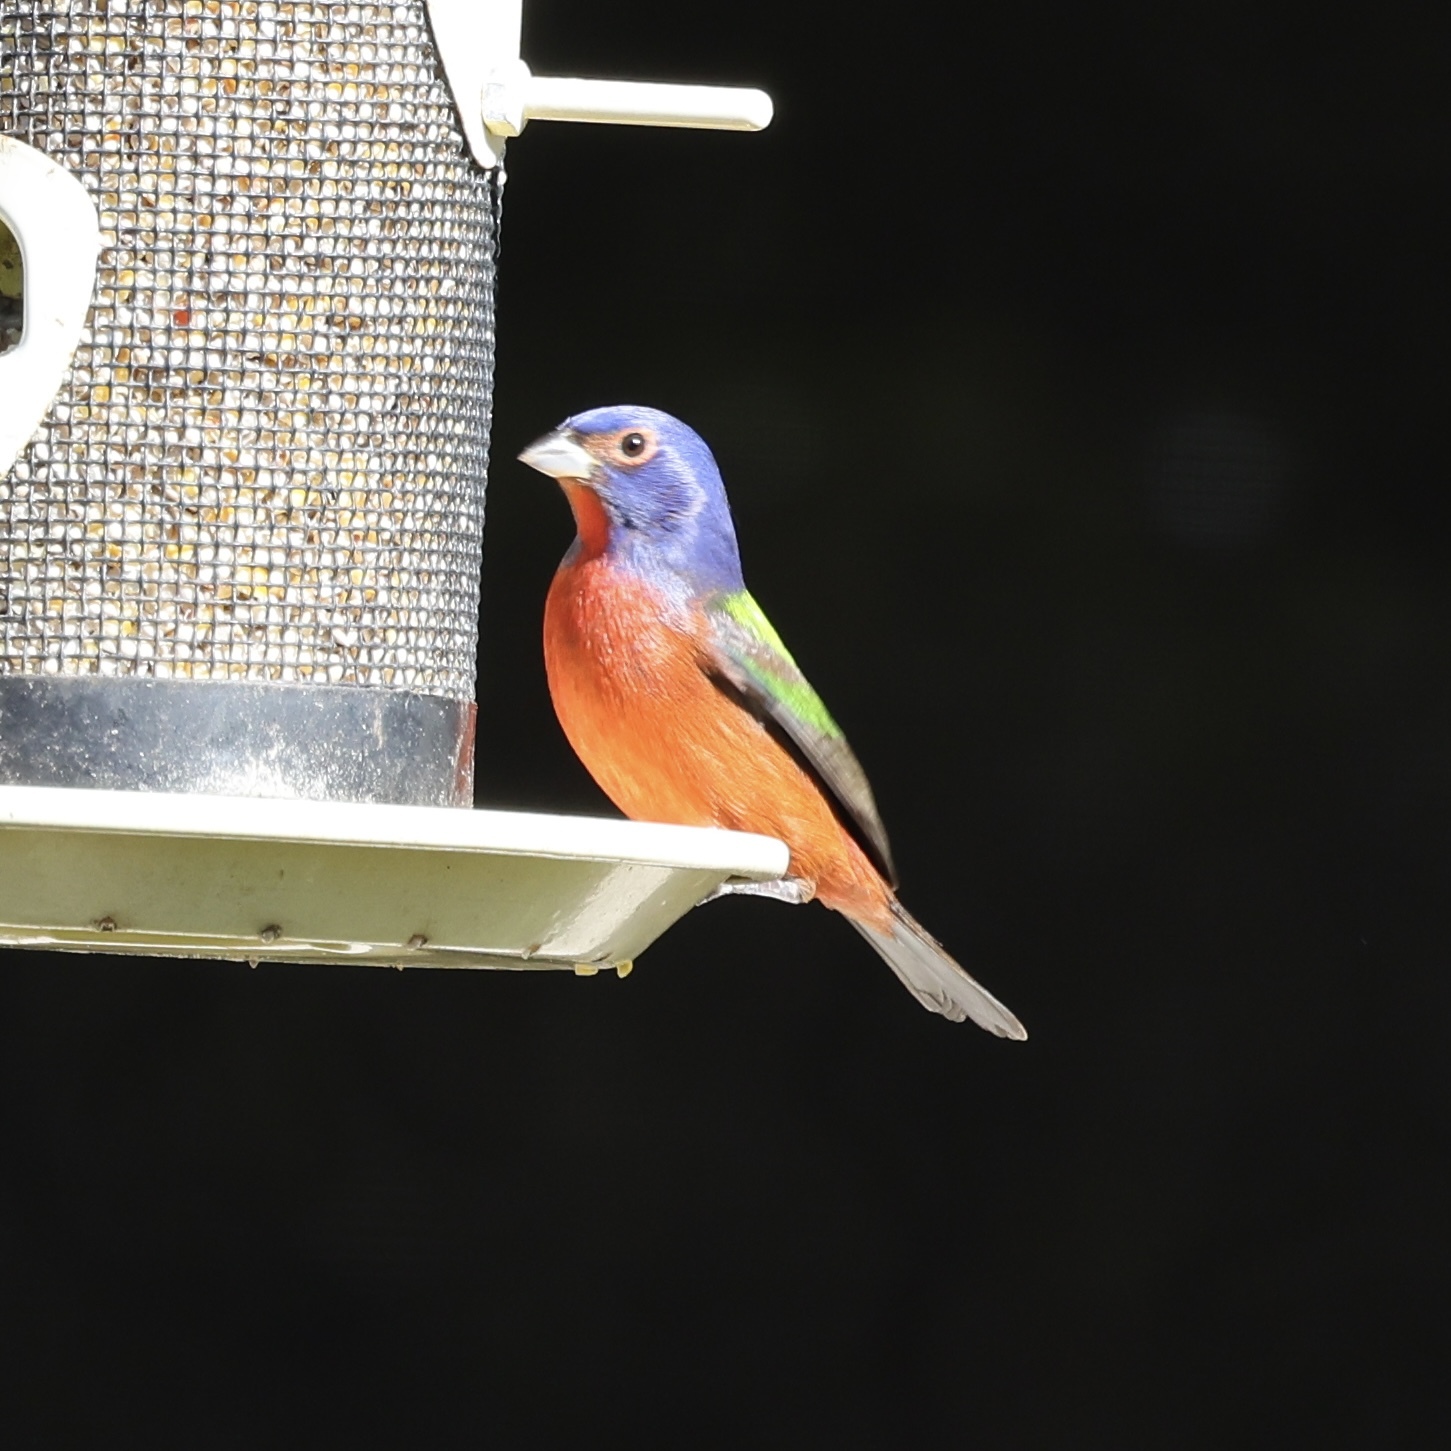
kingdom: Animalia
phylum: Chordata
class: Aves
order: Passeriformes
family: Cardinalidae
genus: Passerina
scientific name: Passerina ciris
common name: Painted bunting
